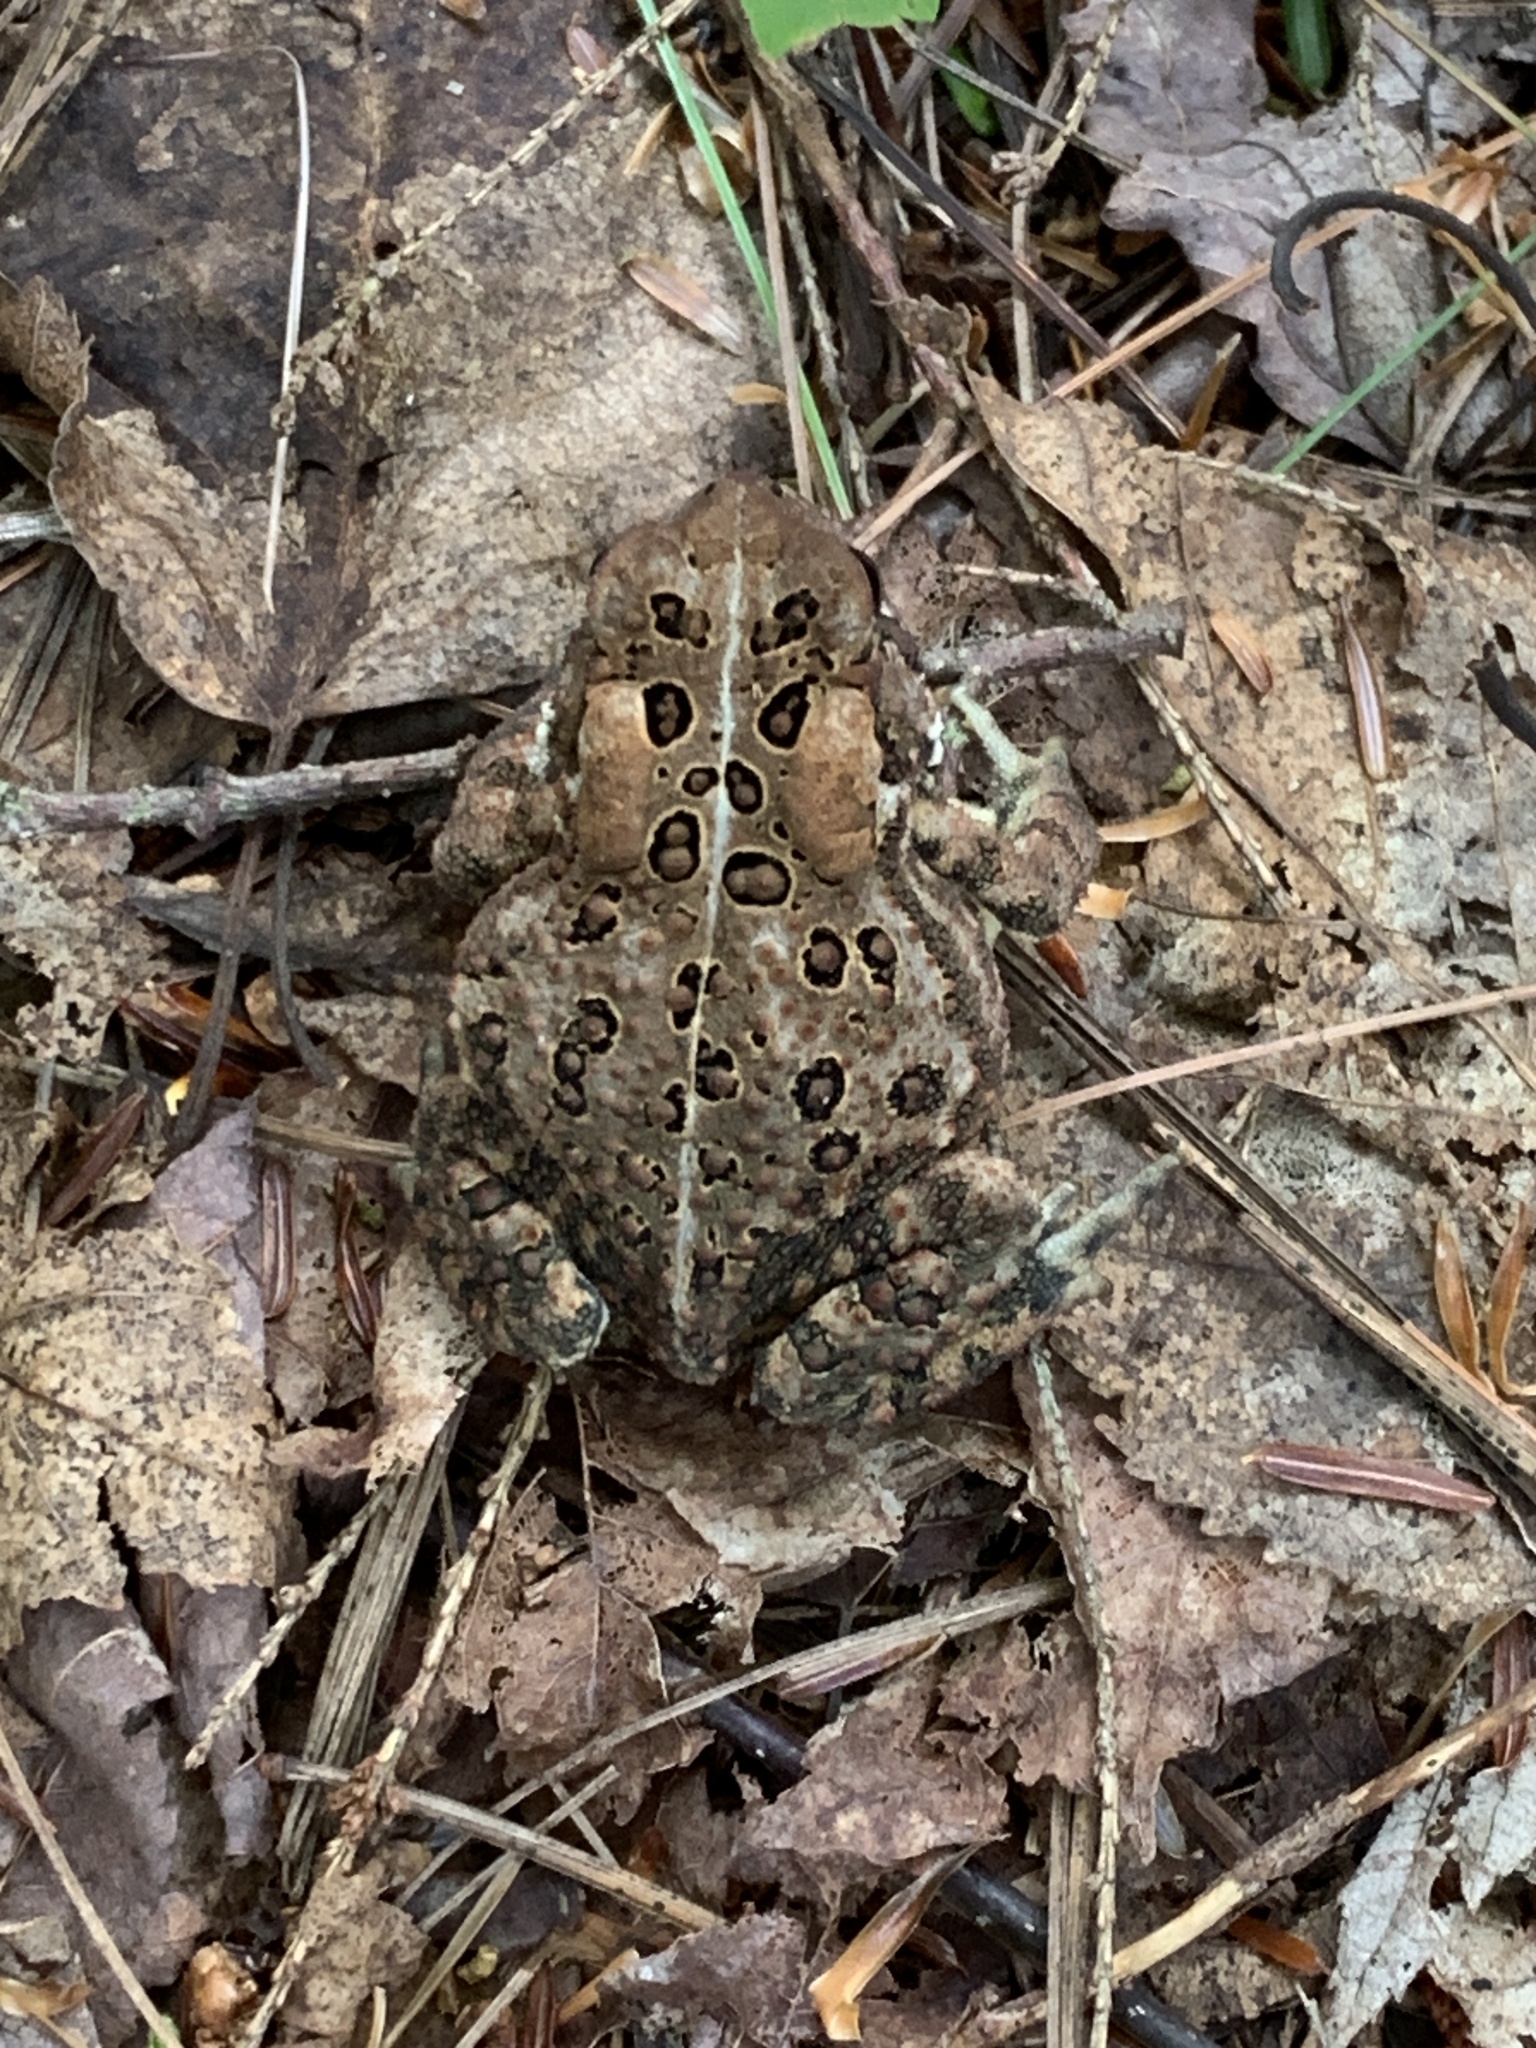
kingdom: Animalia
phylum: Chordata
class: Amphibia
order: Anura
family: Bufonidae
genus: Anaxyrus
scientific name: Anaxyrus americanus
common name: American toad
